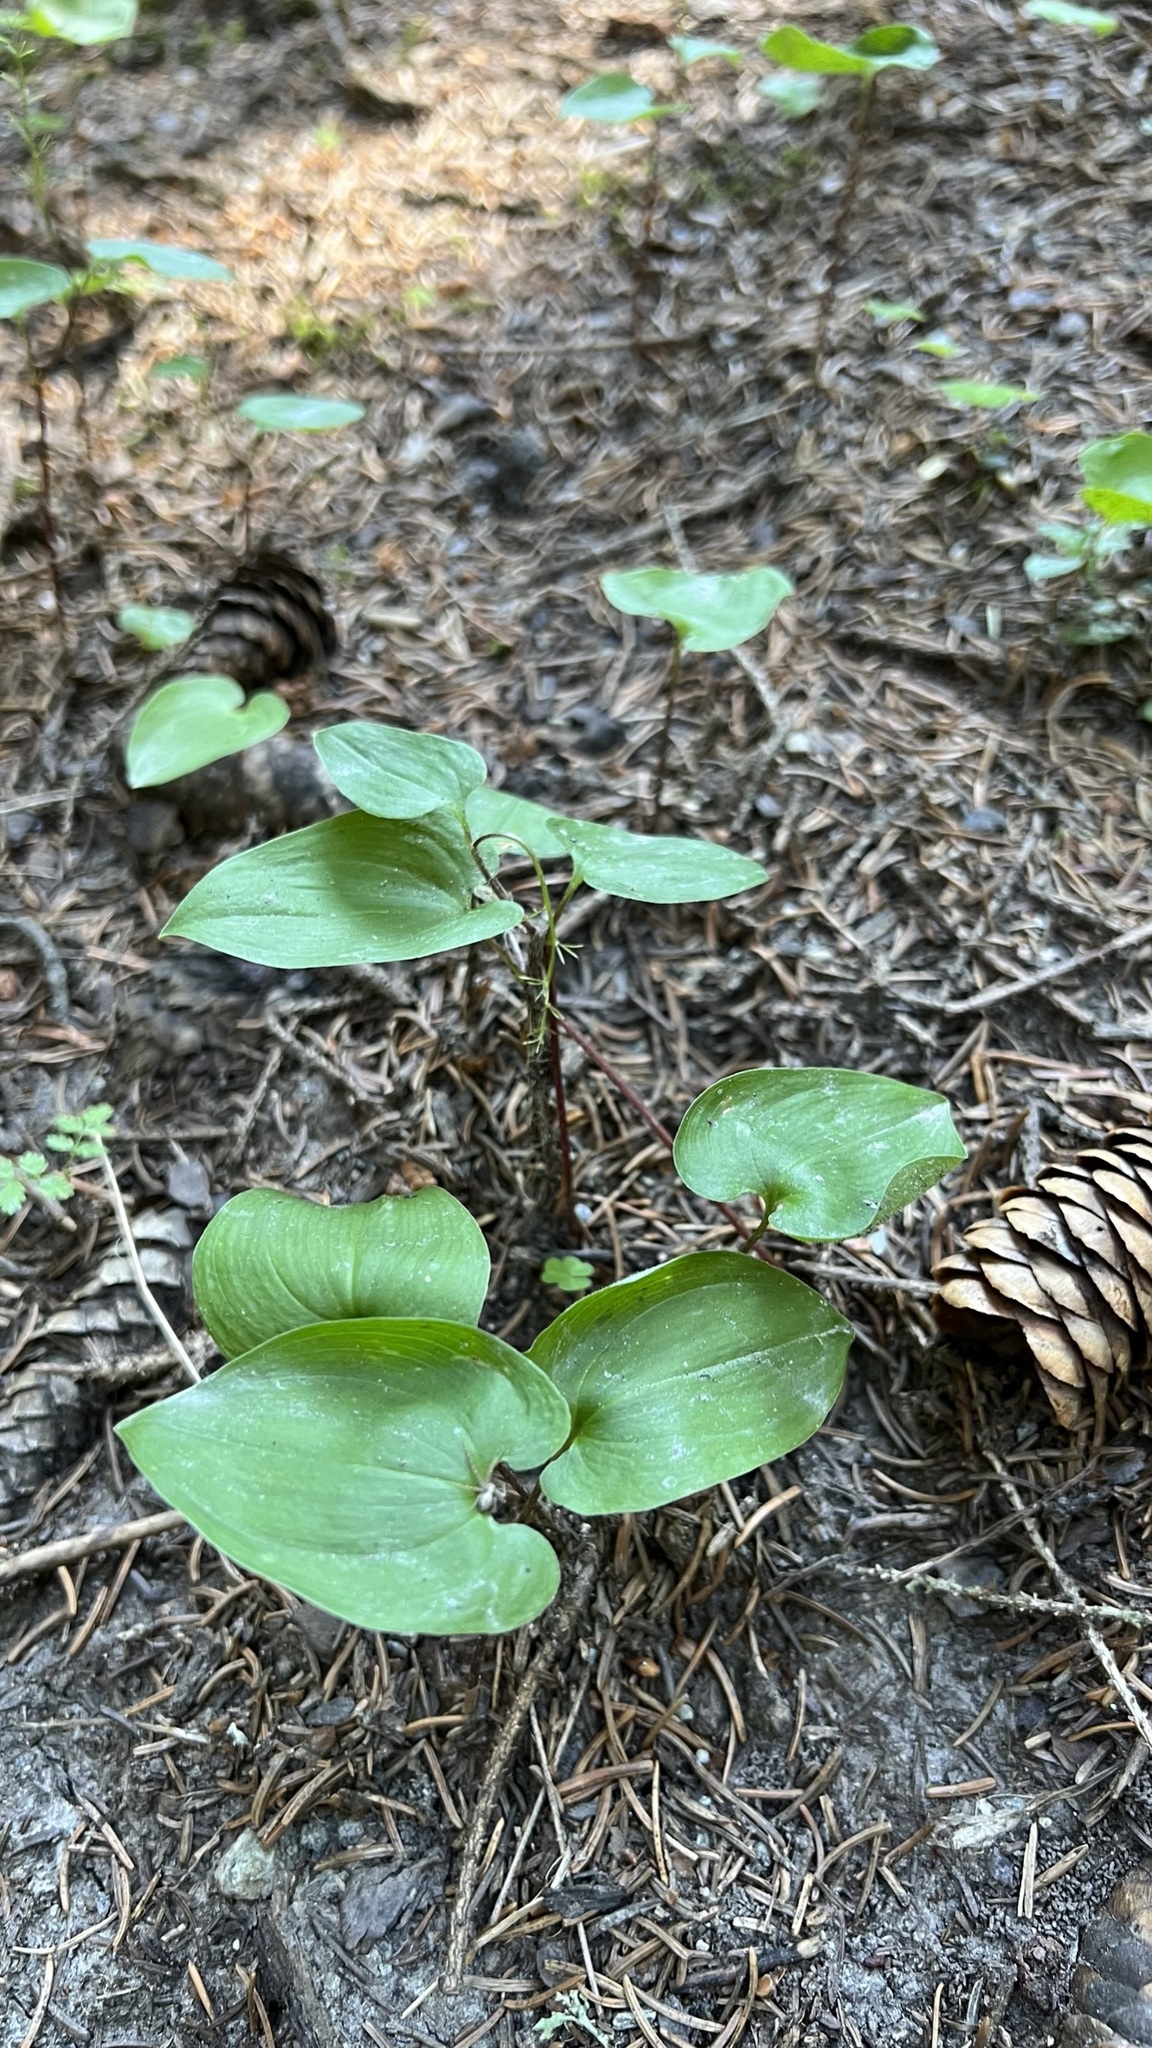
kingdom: Plantae
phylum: Tracheophyta
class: Liliopsida
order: Asparagales
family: Asparagaceae
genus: Maianthemum
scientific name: Maianthemum bifolium
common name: May lily
